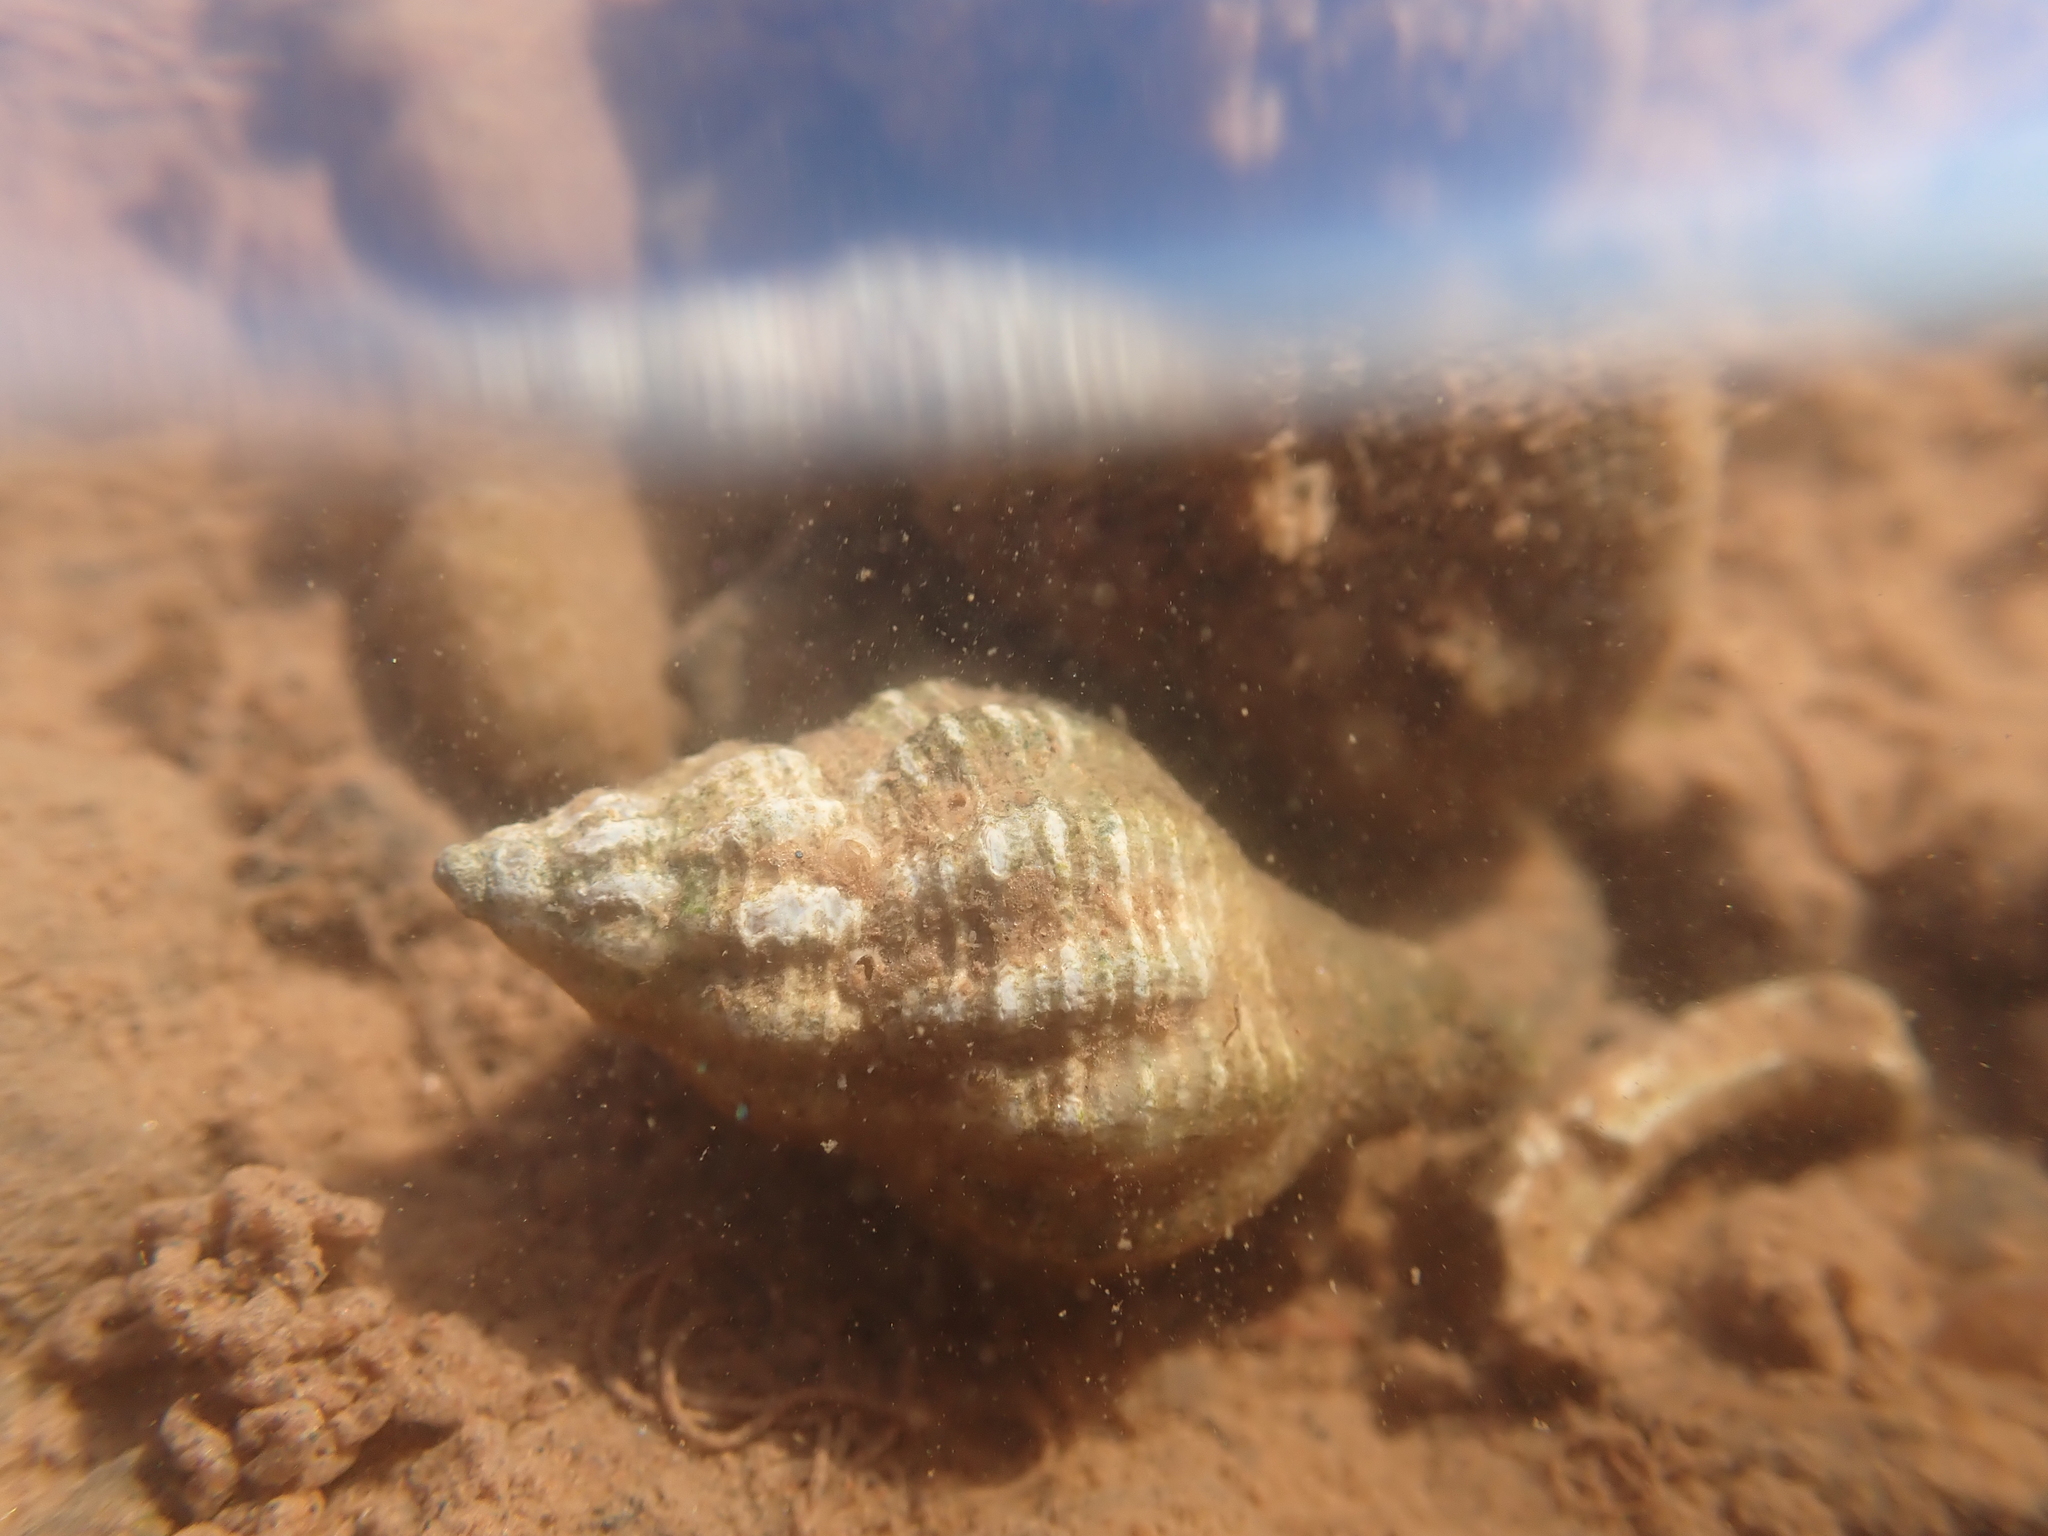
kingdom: Animalia
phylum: Mollusca
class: Gastropoda
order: Neogastropoda
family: Muricidae
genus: Urosalpinx
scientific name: Urosalpinx cinerea
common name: American sting winkle
